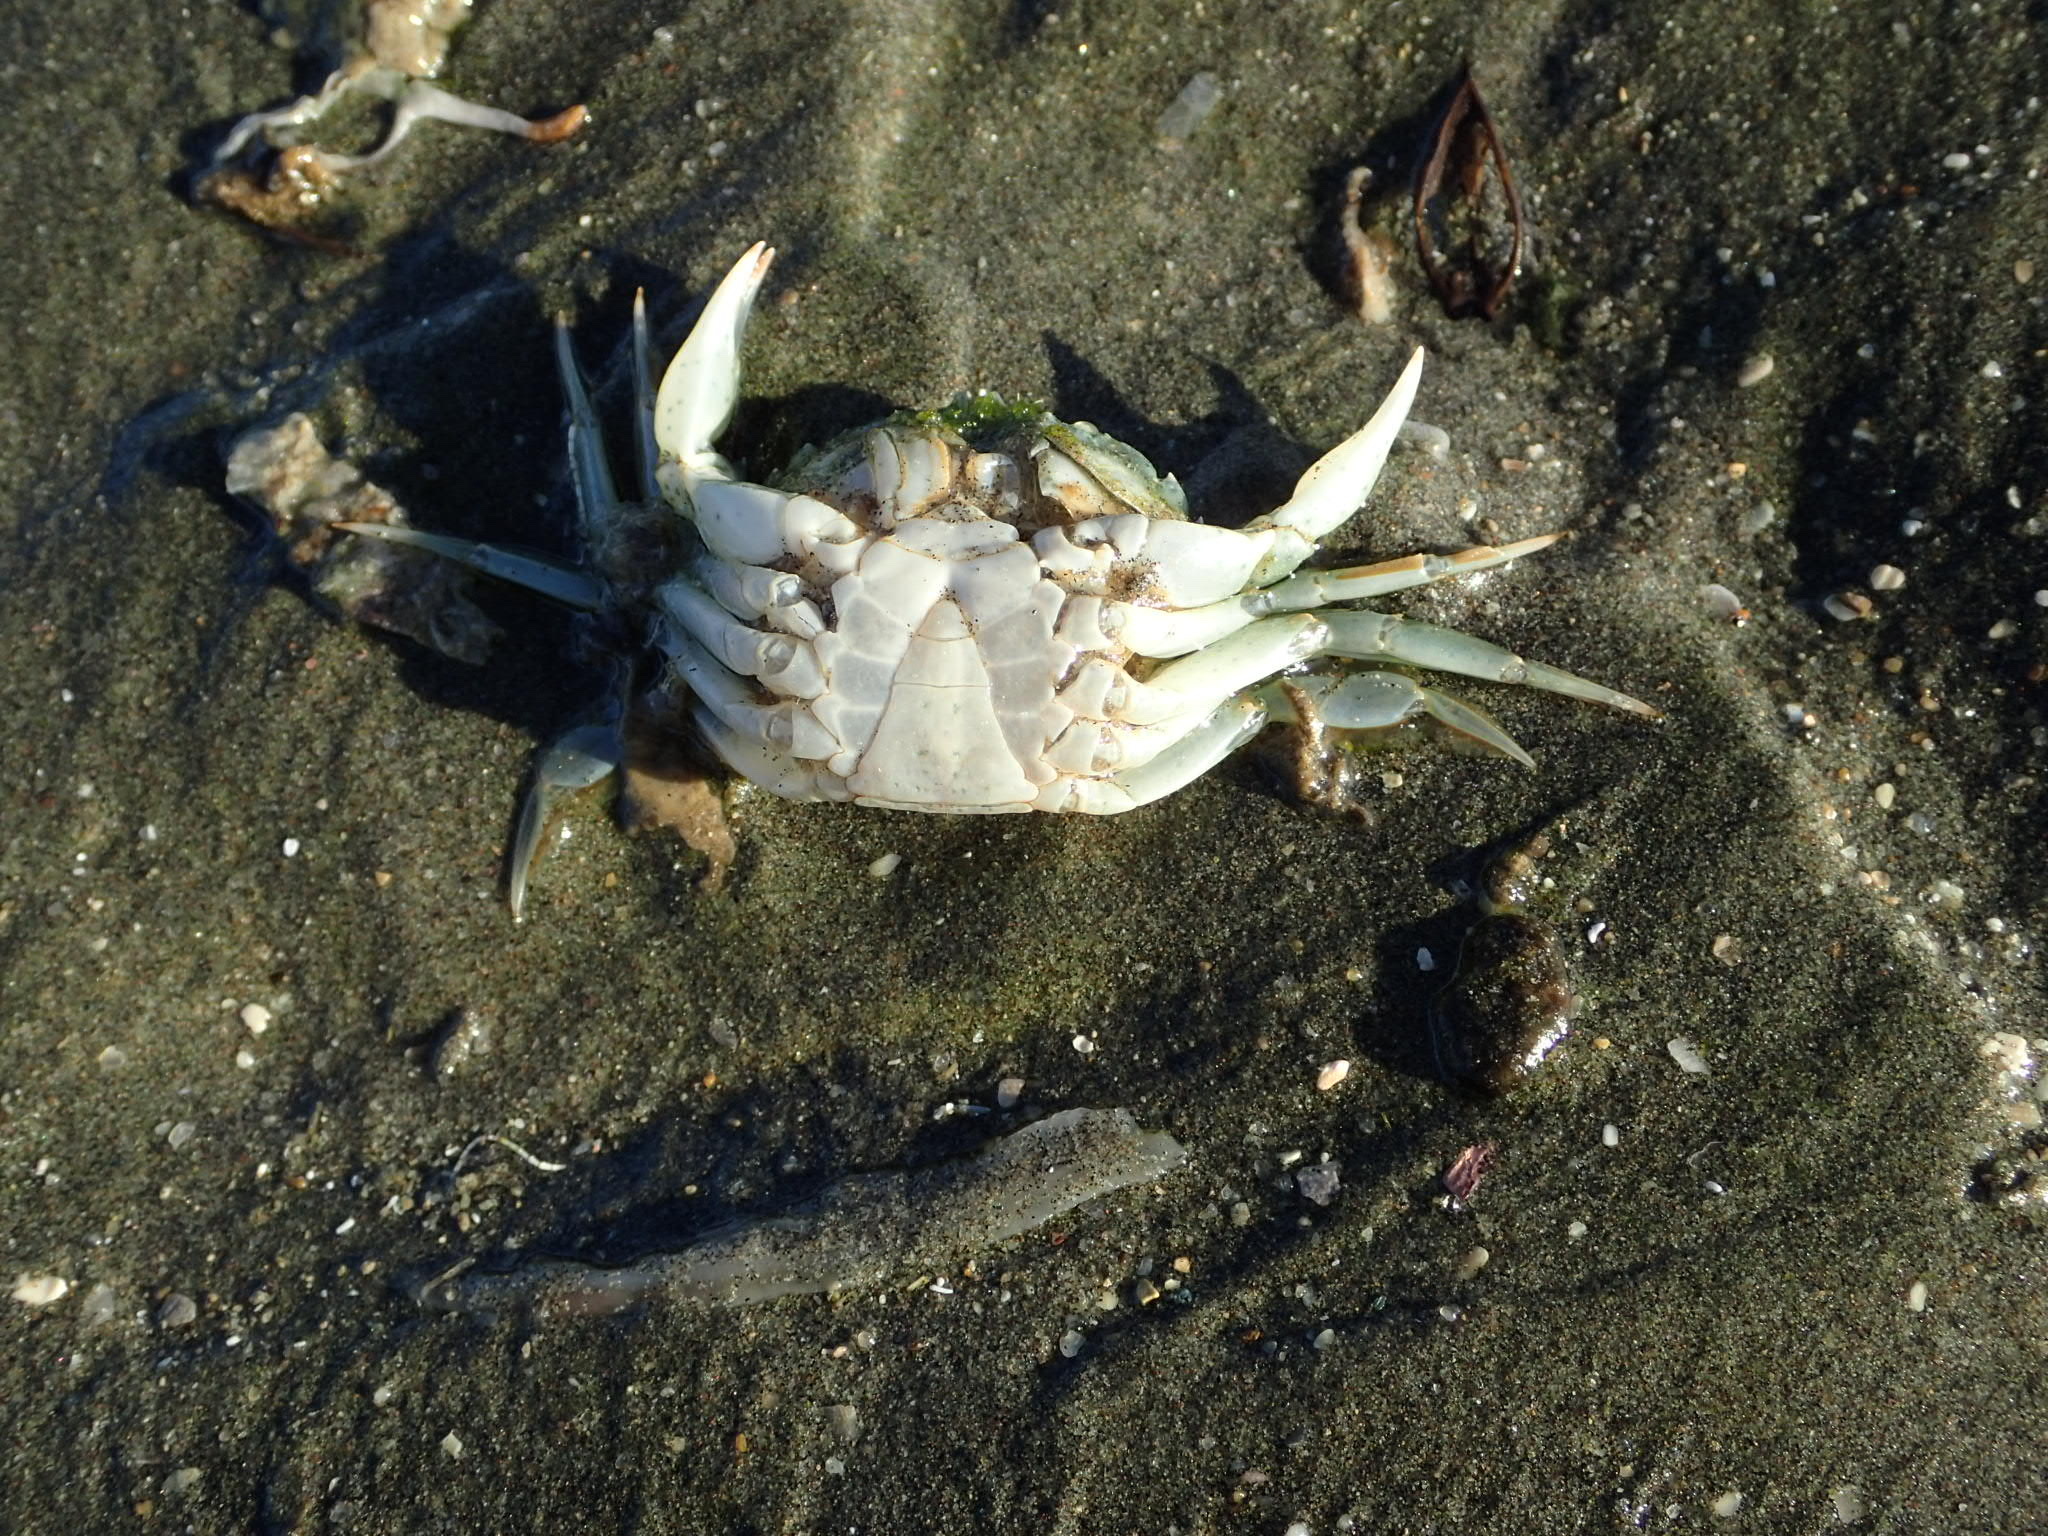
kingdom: Animalia
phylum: Arthropoda
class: Malacostraca
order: Decapoda
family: Carcinidae
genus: Carcinus
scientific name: Carcinus maenas
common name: European green crab
